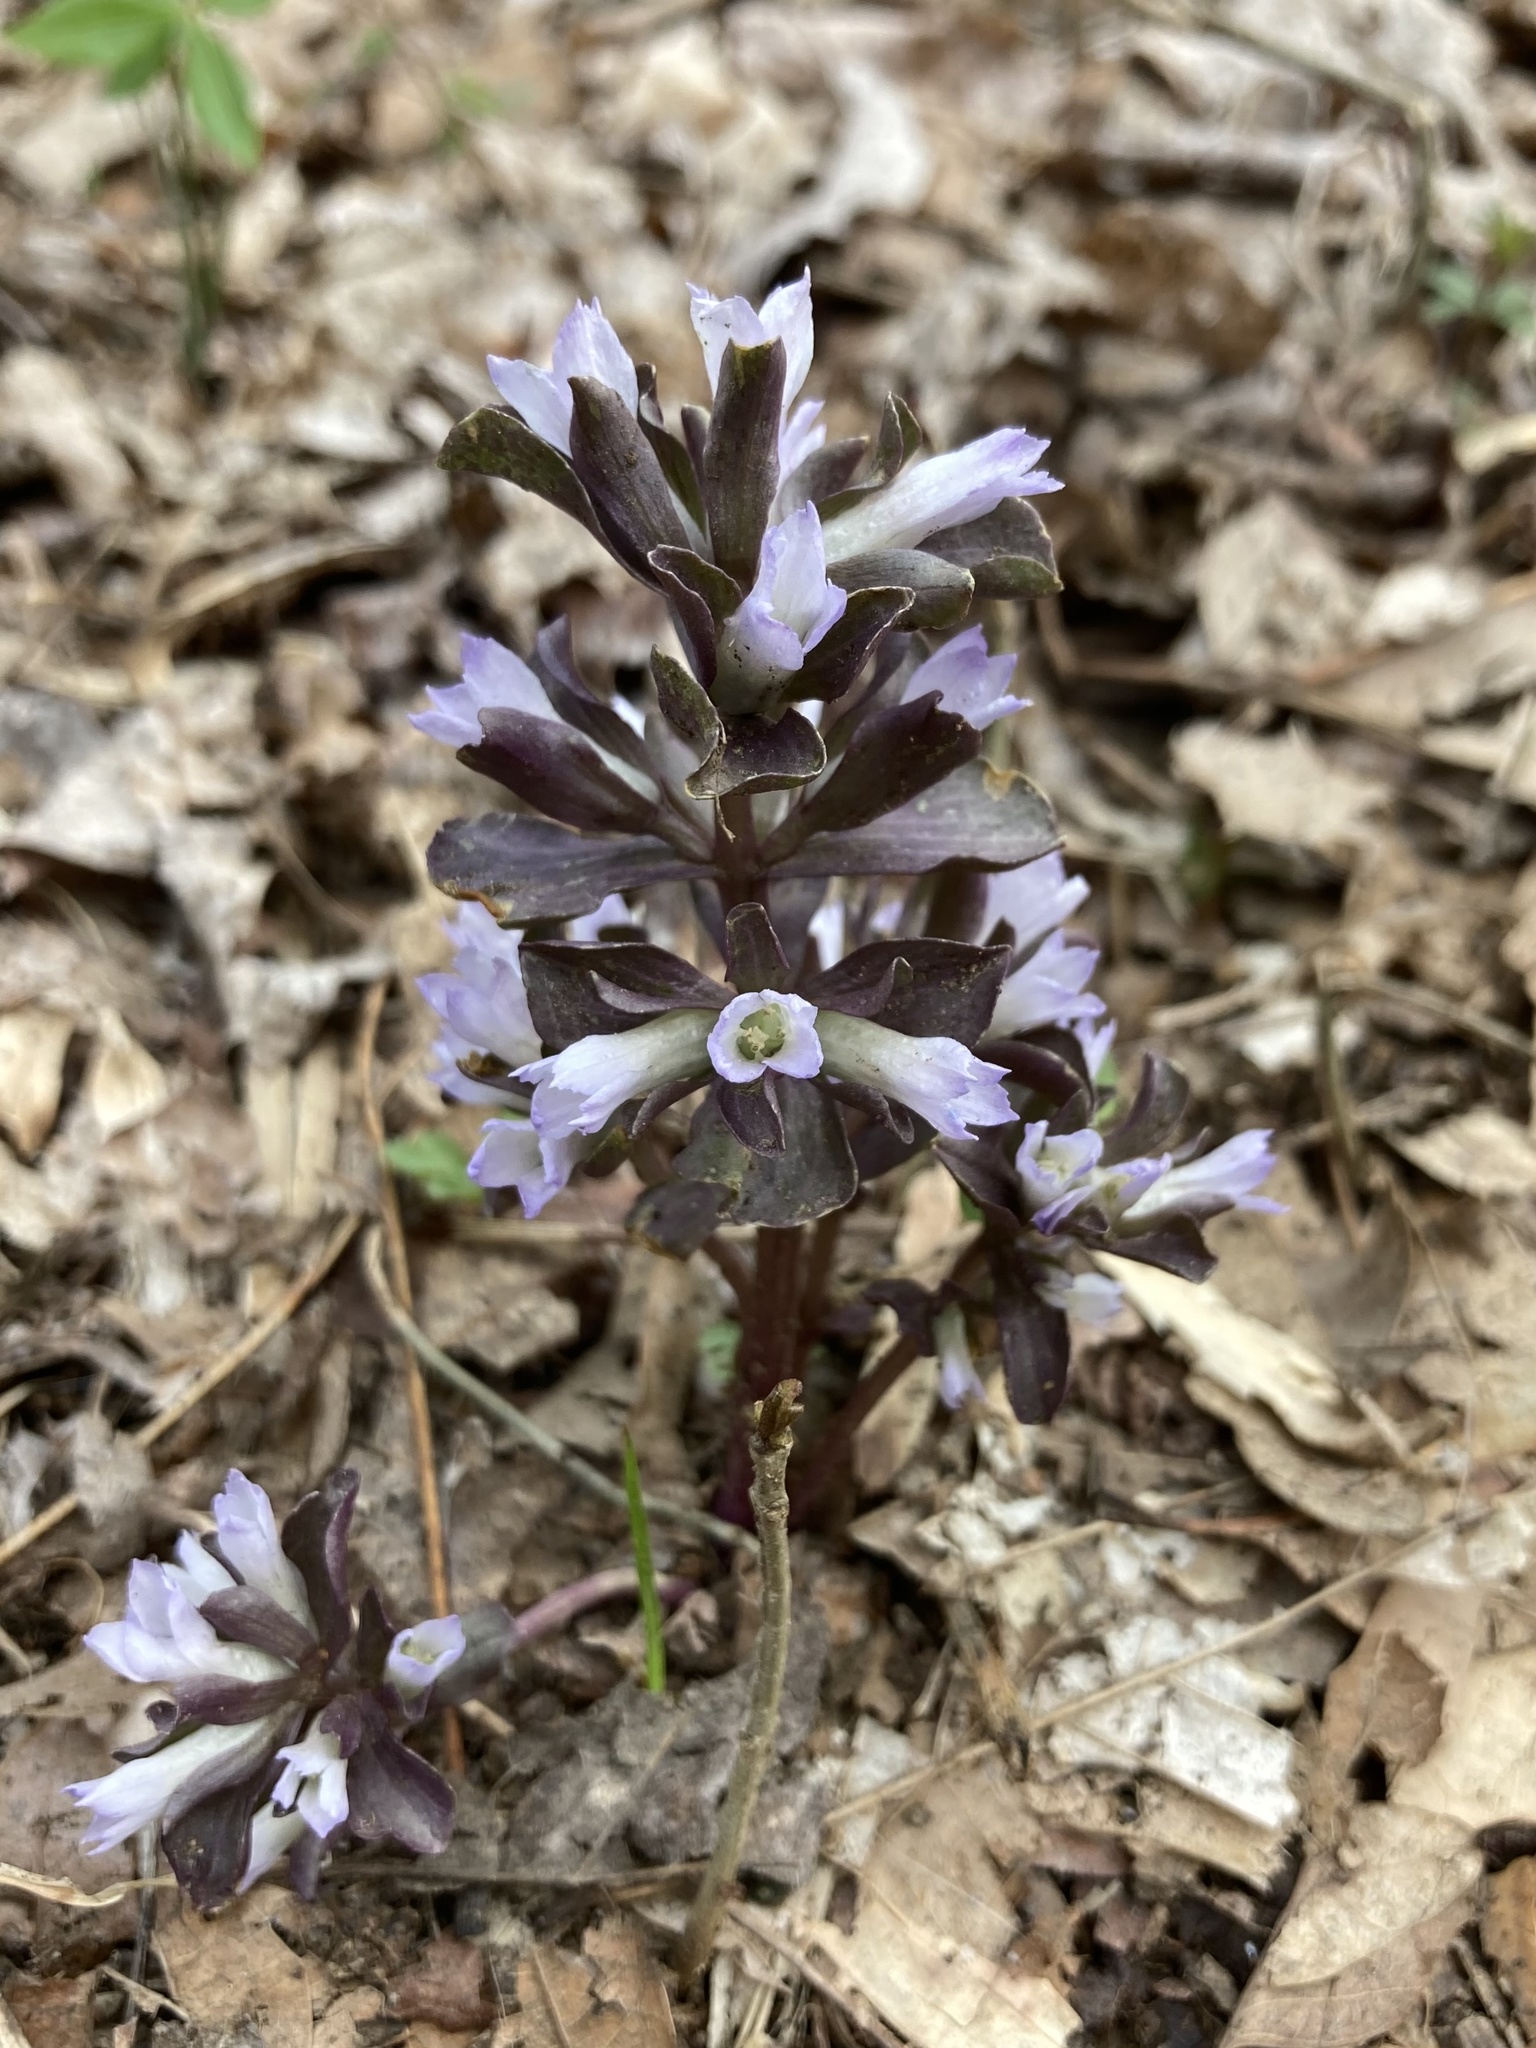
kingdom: Plantae
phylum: Tracheophyta
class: Magnoliopsida
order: Gentianales
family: Gentianaceae
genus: Obolaria
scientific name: Obolaria virginica
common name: Pennywort
